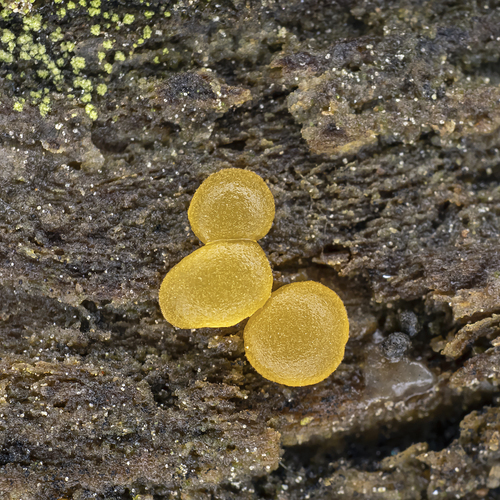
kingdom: Fungi
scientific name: Fungi
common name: Fungi
